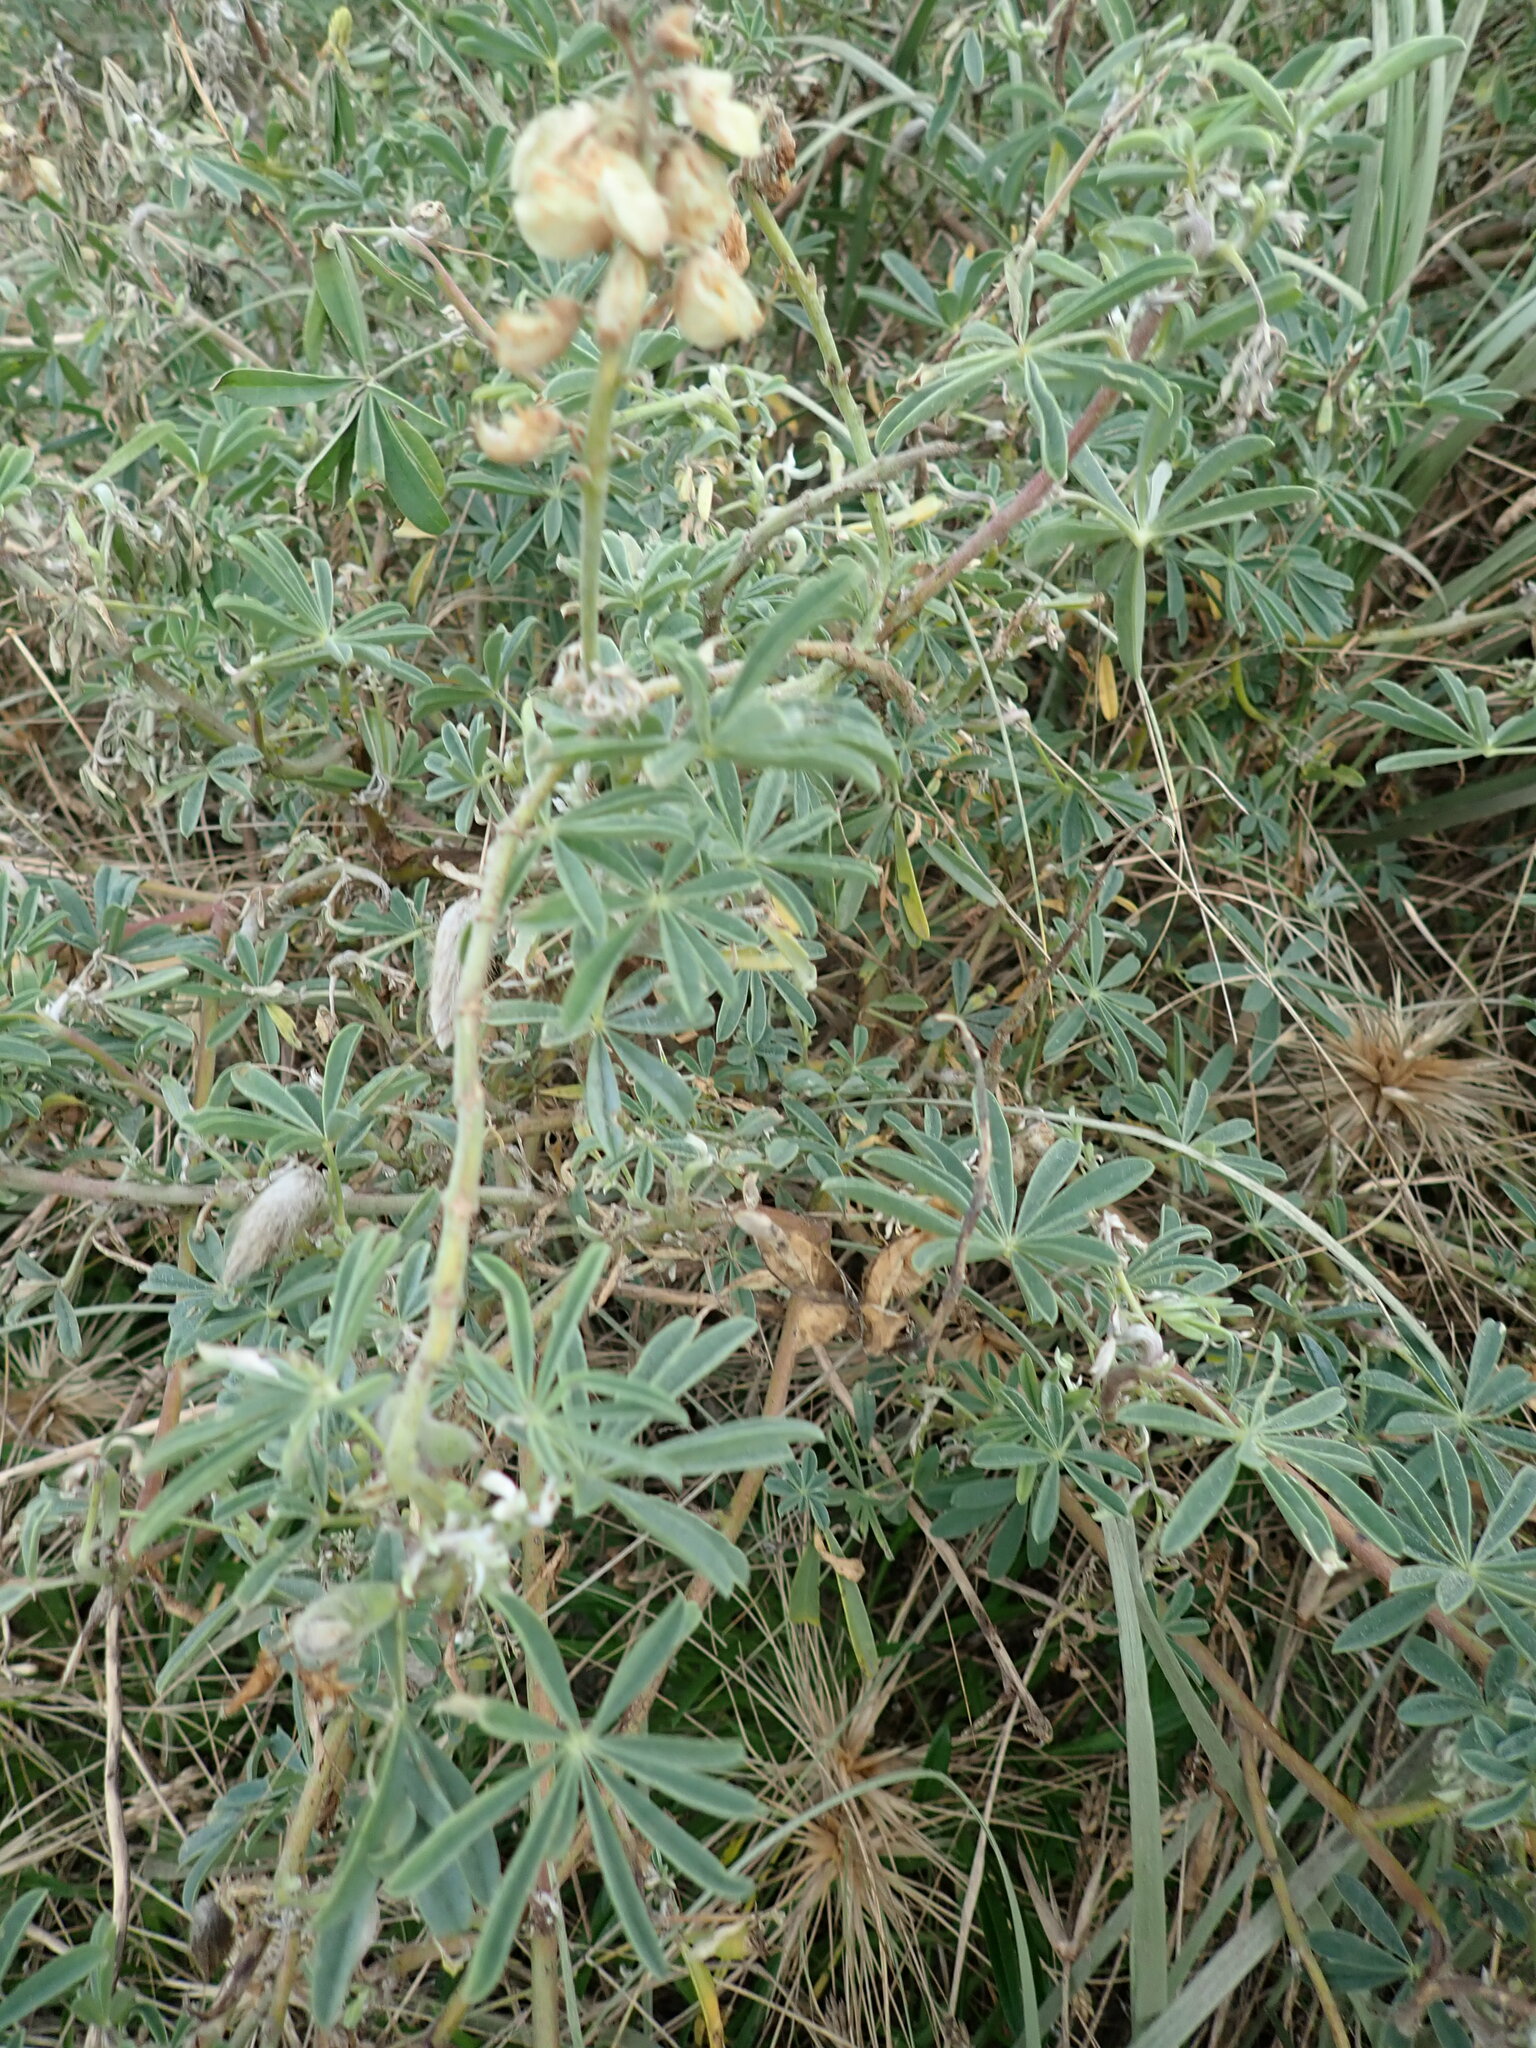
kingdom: Plantae
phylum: Tracheophyta
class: Magnoliopsida
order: Fabales
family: Fabaceae
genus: Lupinus
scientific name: Lupinus arboreus
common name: Yellow bush lupine
